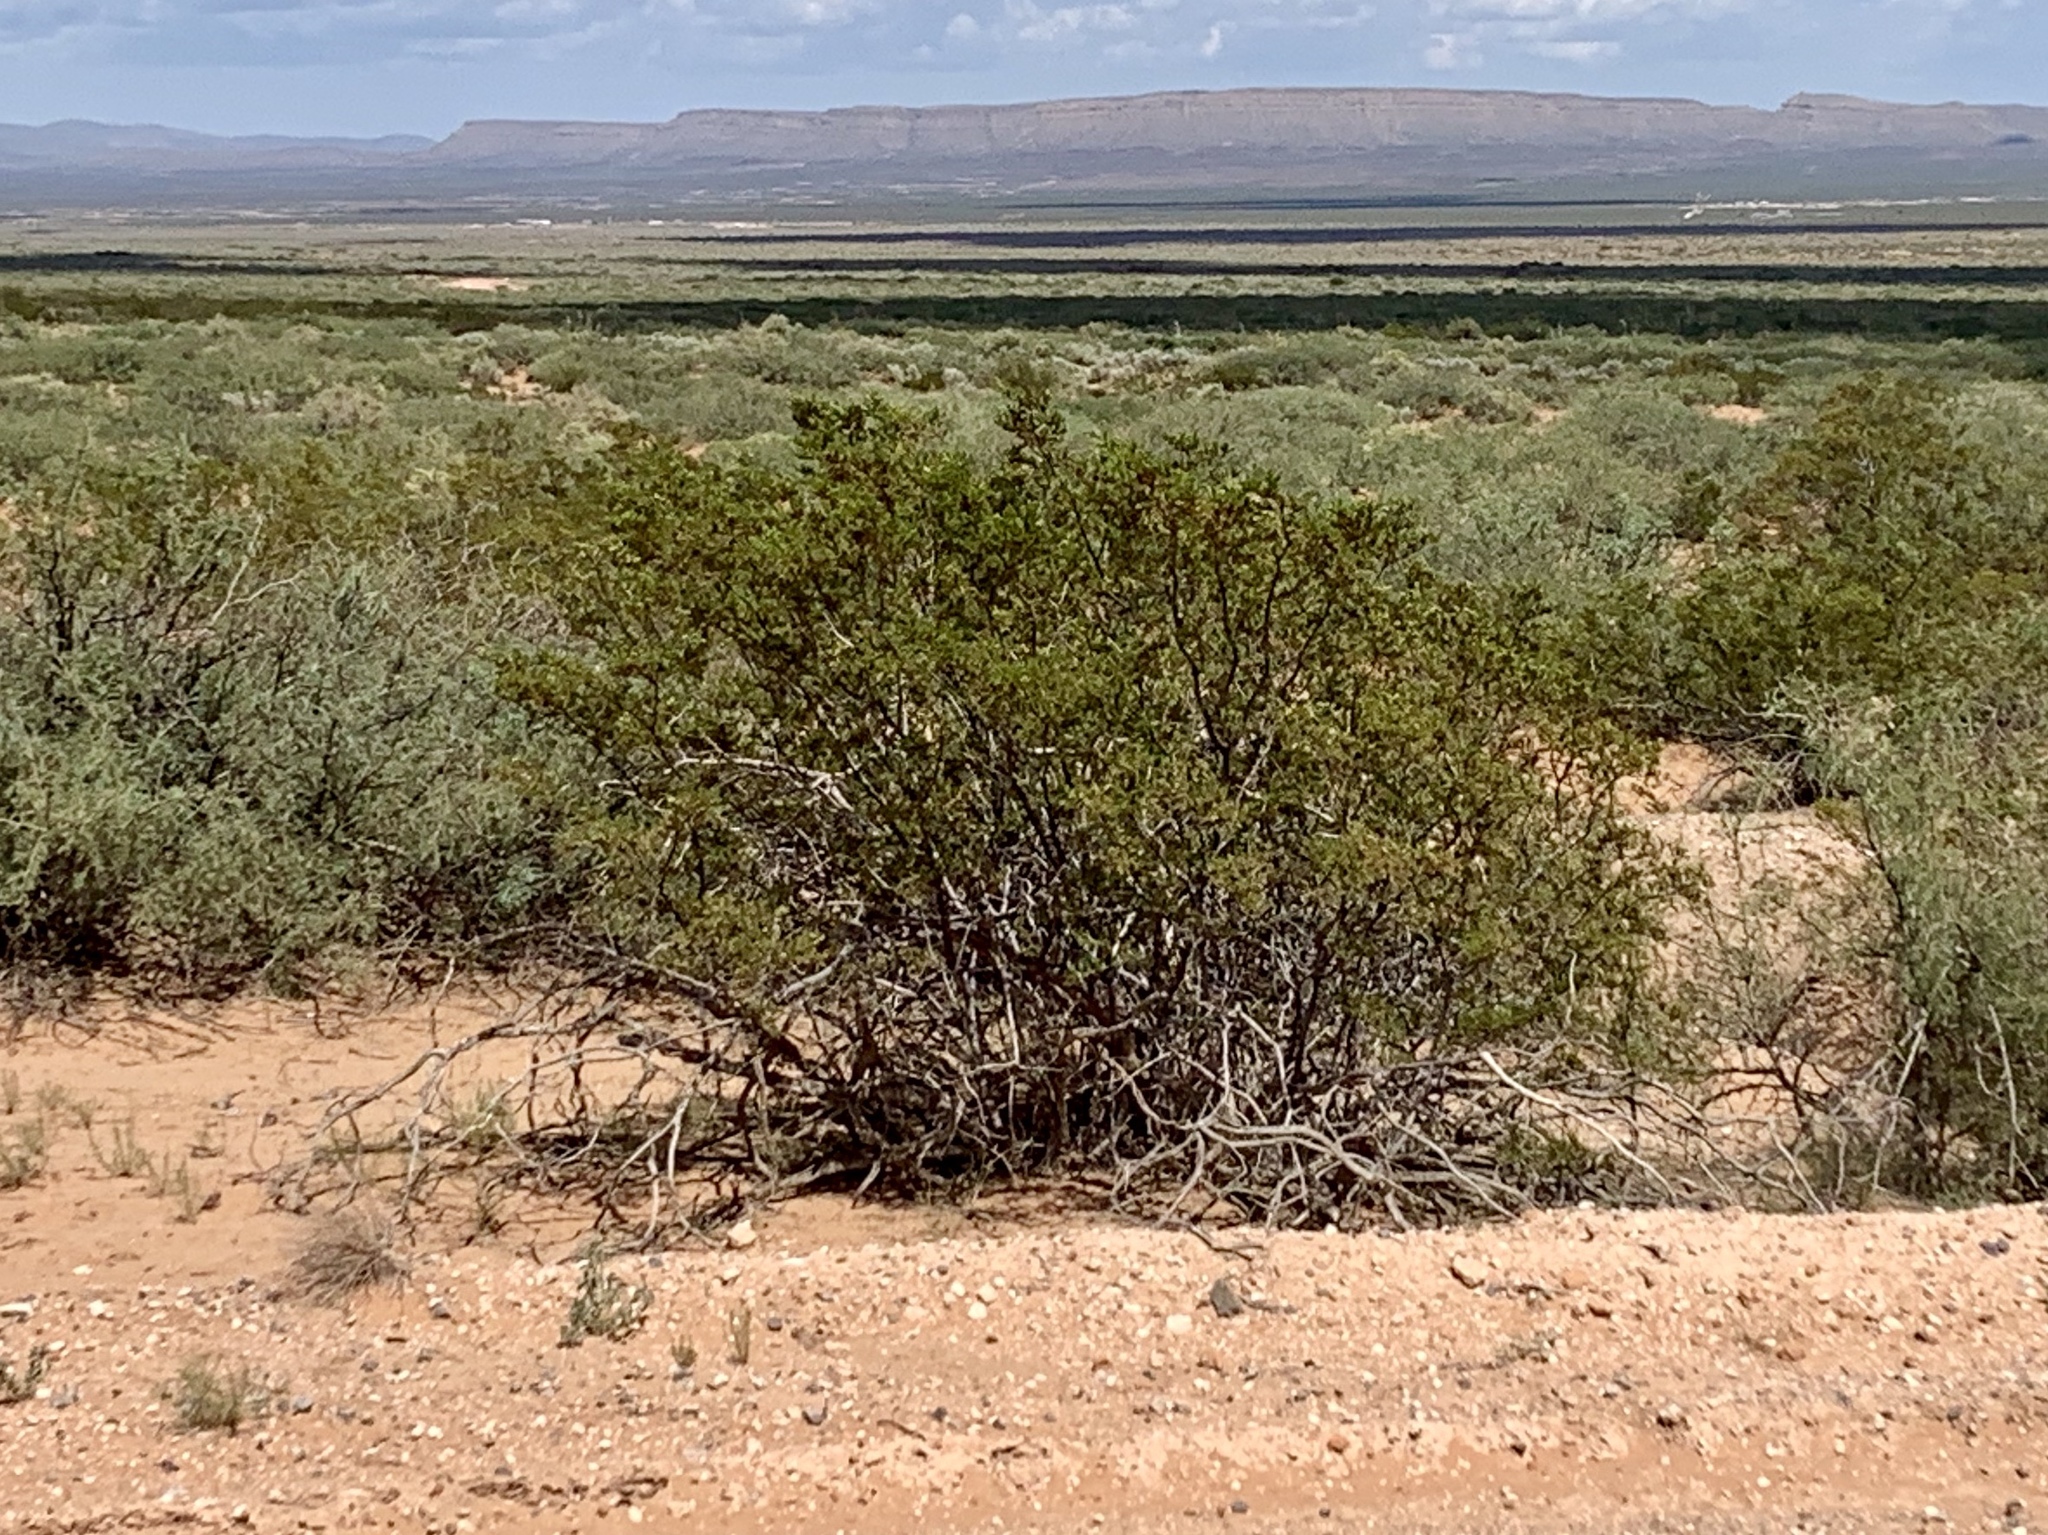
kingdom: Plantae
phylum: Tracheophyta
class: Magnoliopsida
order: Zygophyllales
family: Zygophyllaceae
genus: Larrea
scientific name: Larrea tridentata
